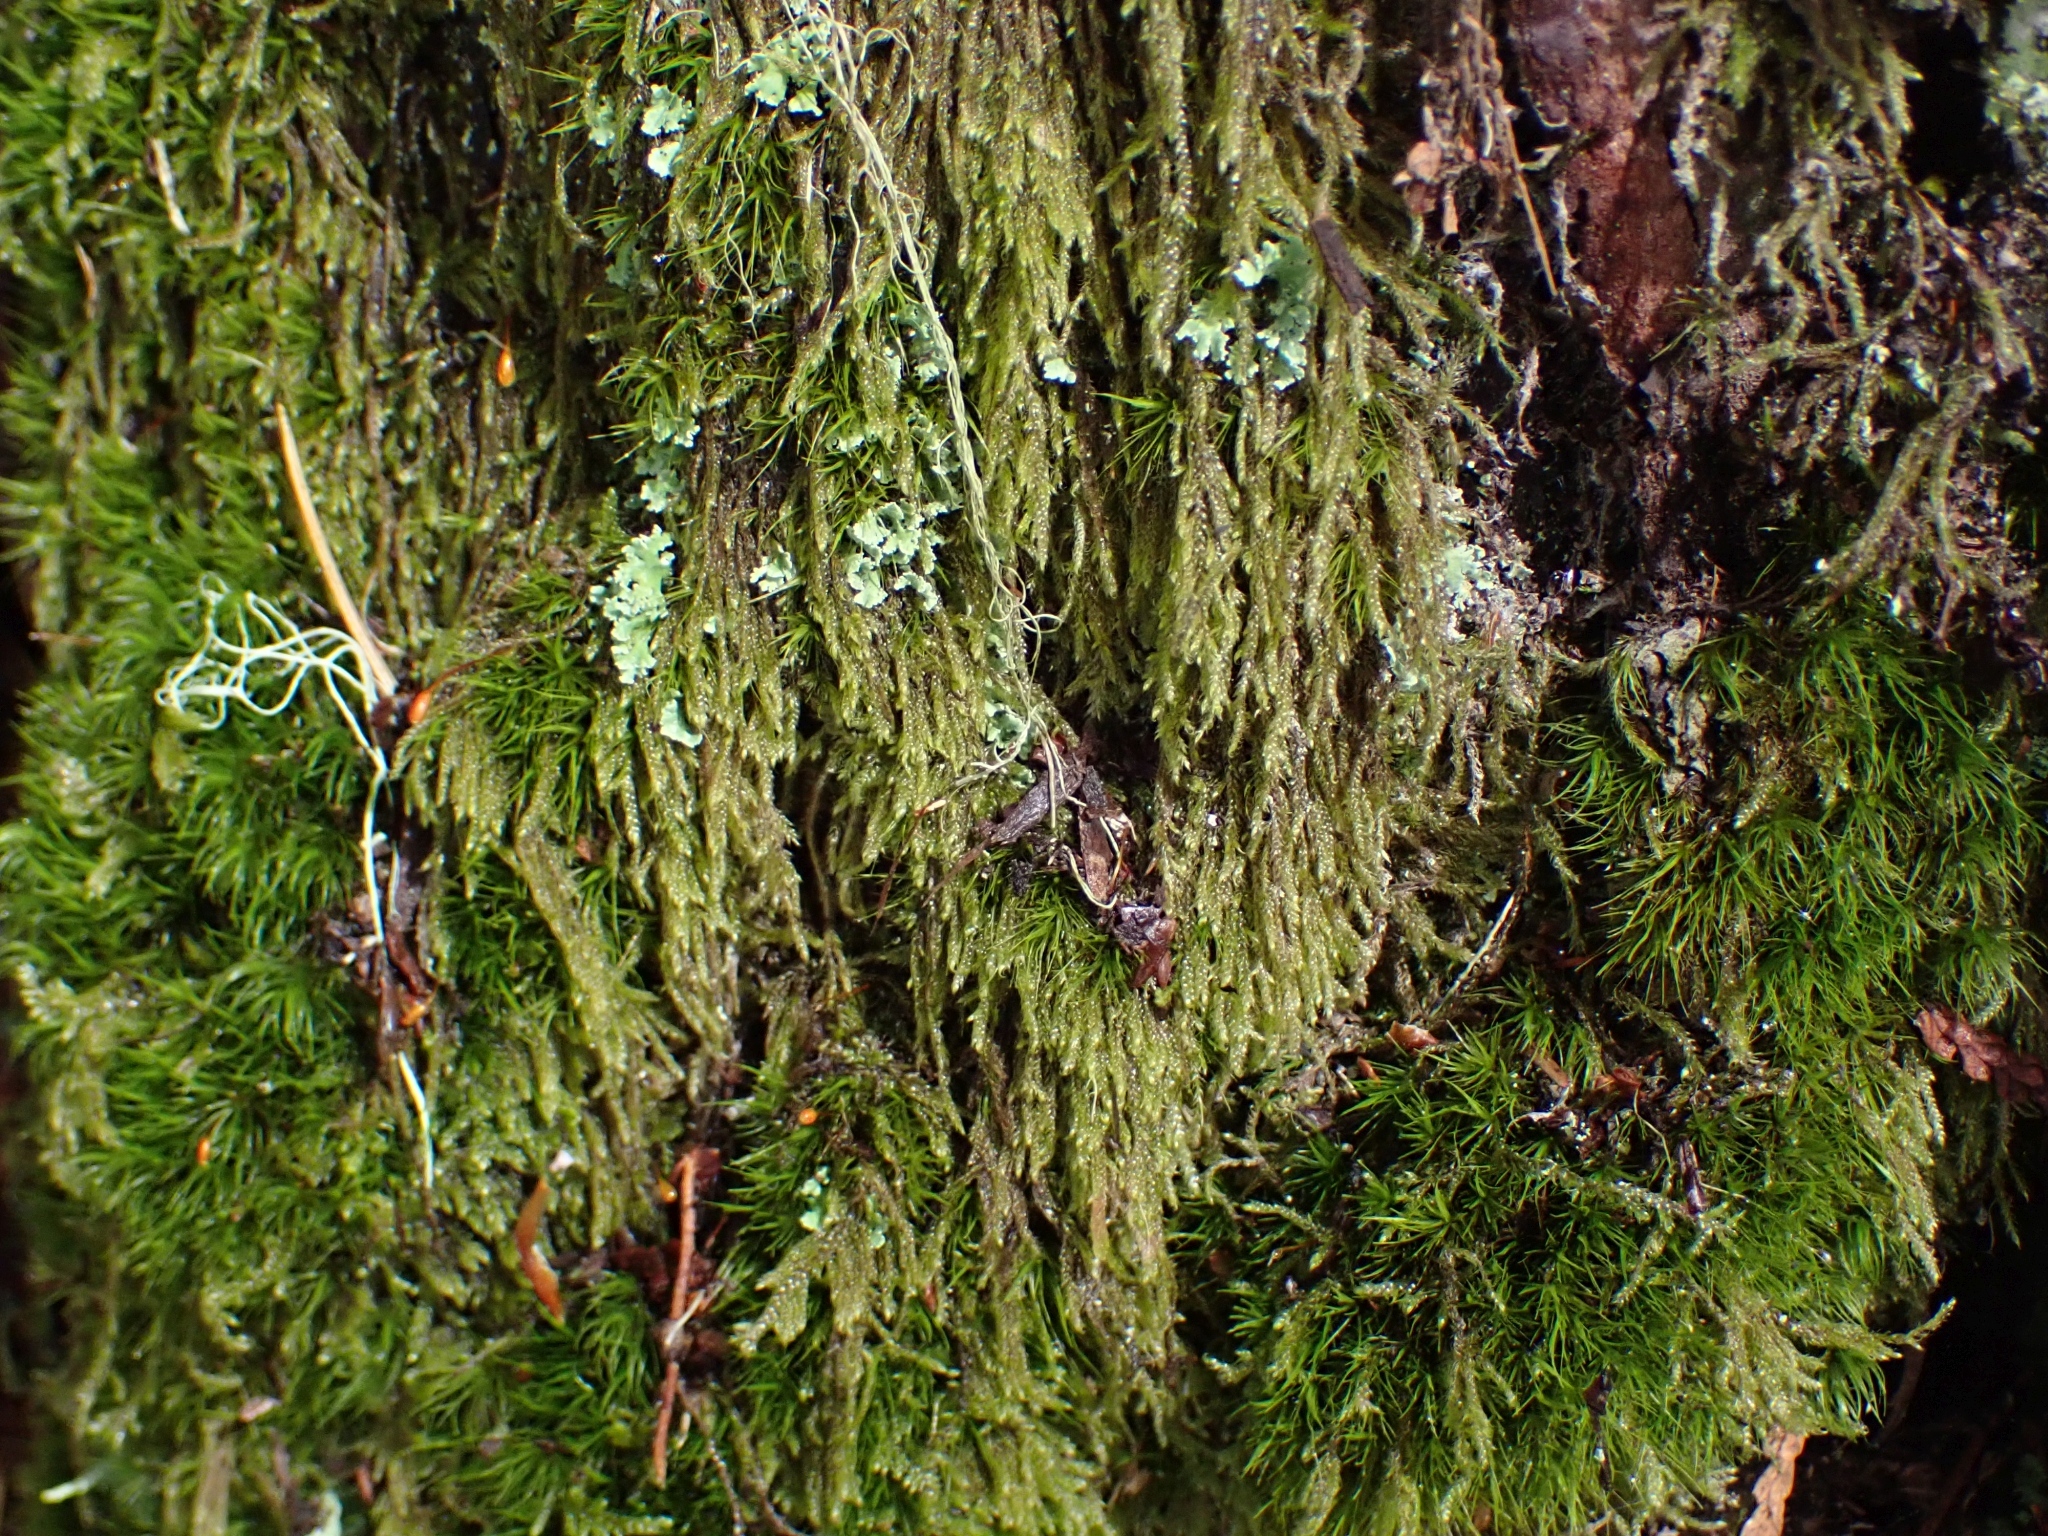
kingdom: Plantae
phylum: Bryophyta
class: Bryopsida
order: Hypnales
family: Pylaisiadelphaceae
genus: Trochophyllohypnum
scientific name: Trochophyllohypnum circinale
